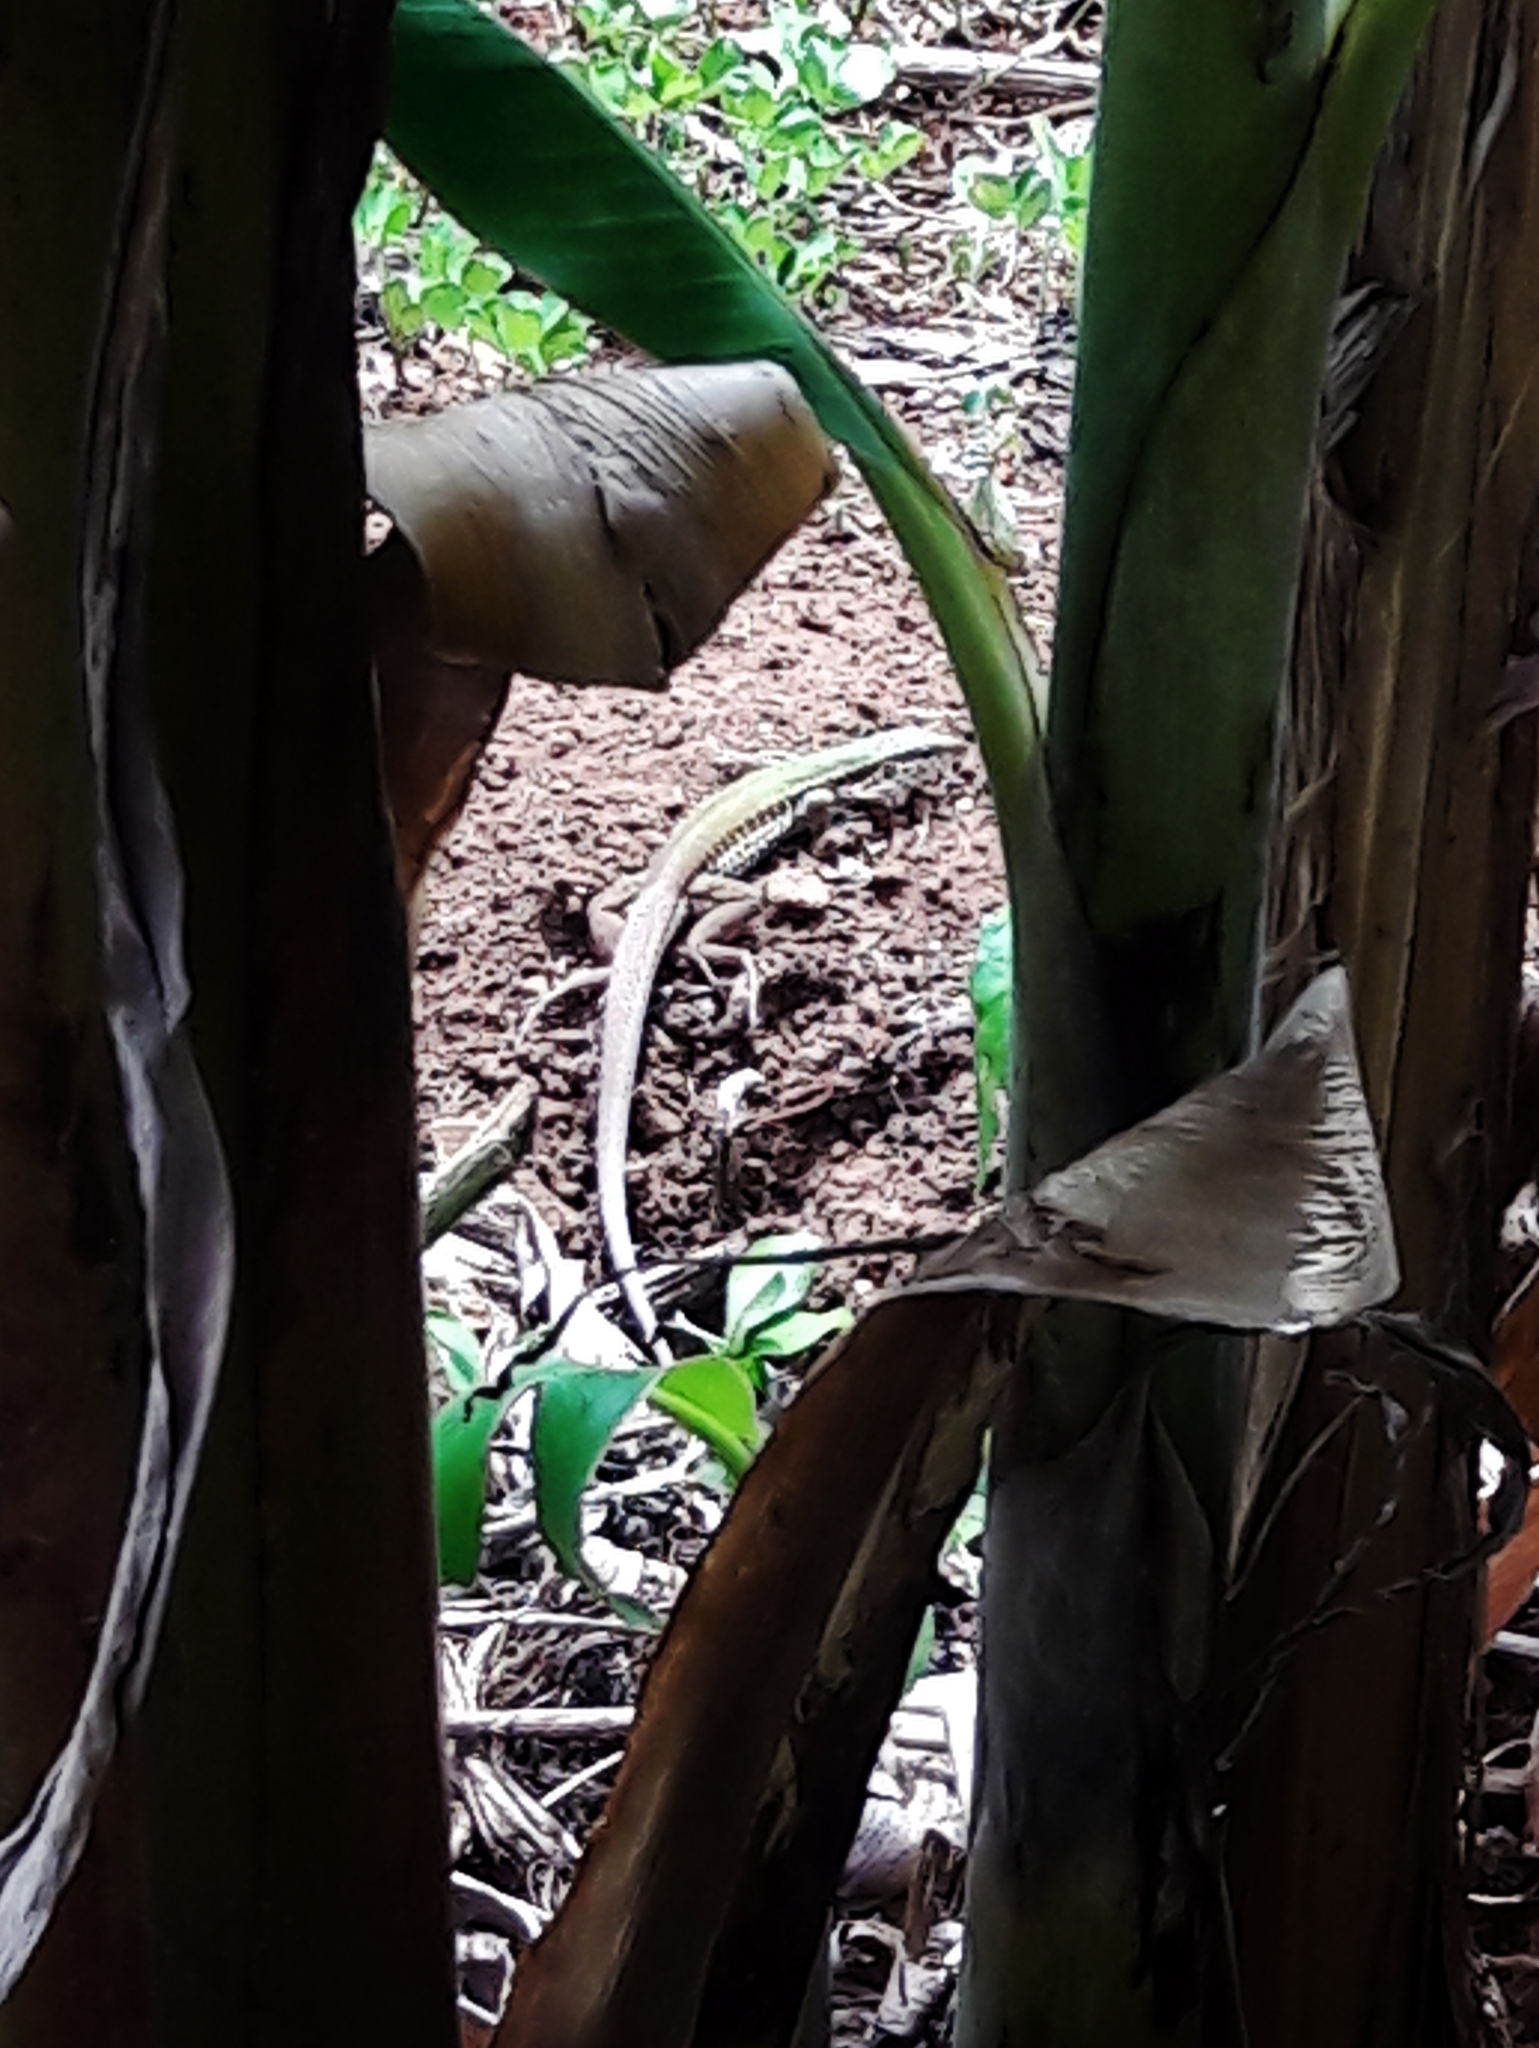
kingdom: Animalia
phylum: Chordata
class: Squamata
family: Teiidae
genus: Ameiva
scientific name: Ameiva ameiva
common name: Giant ameiva
